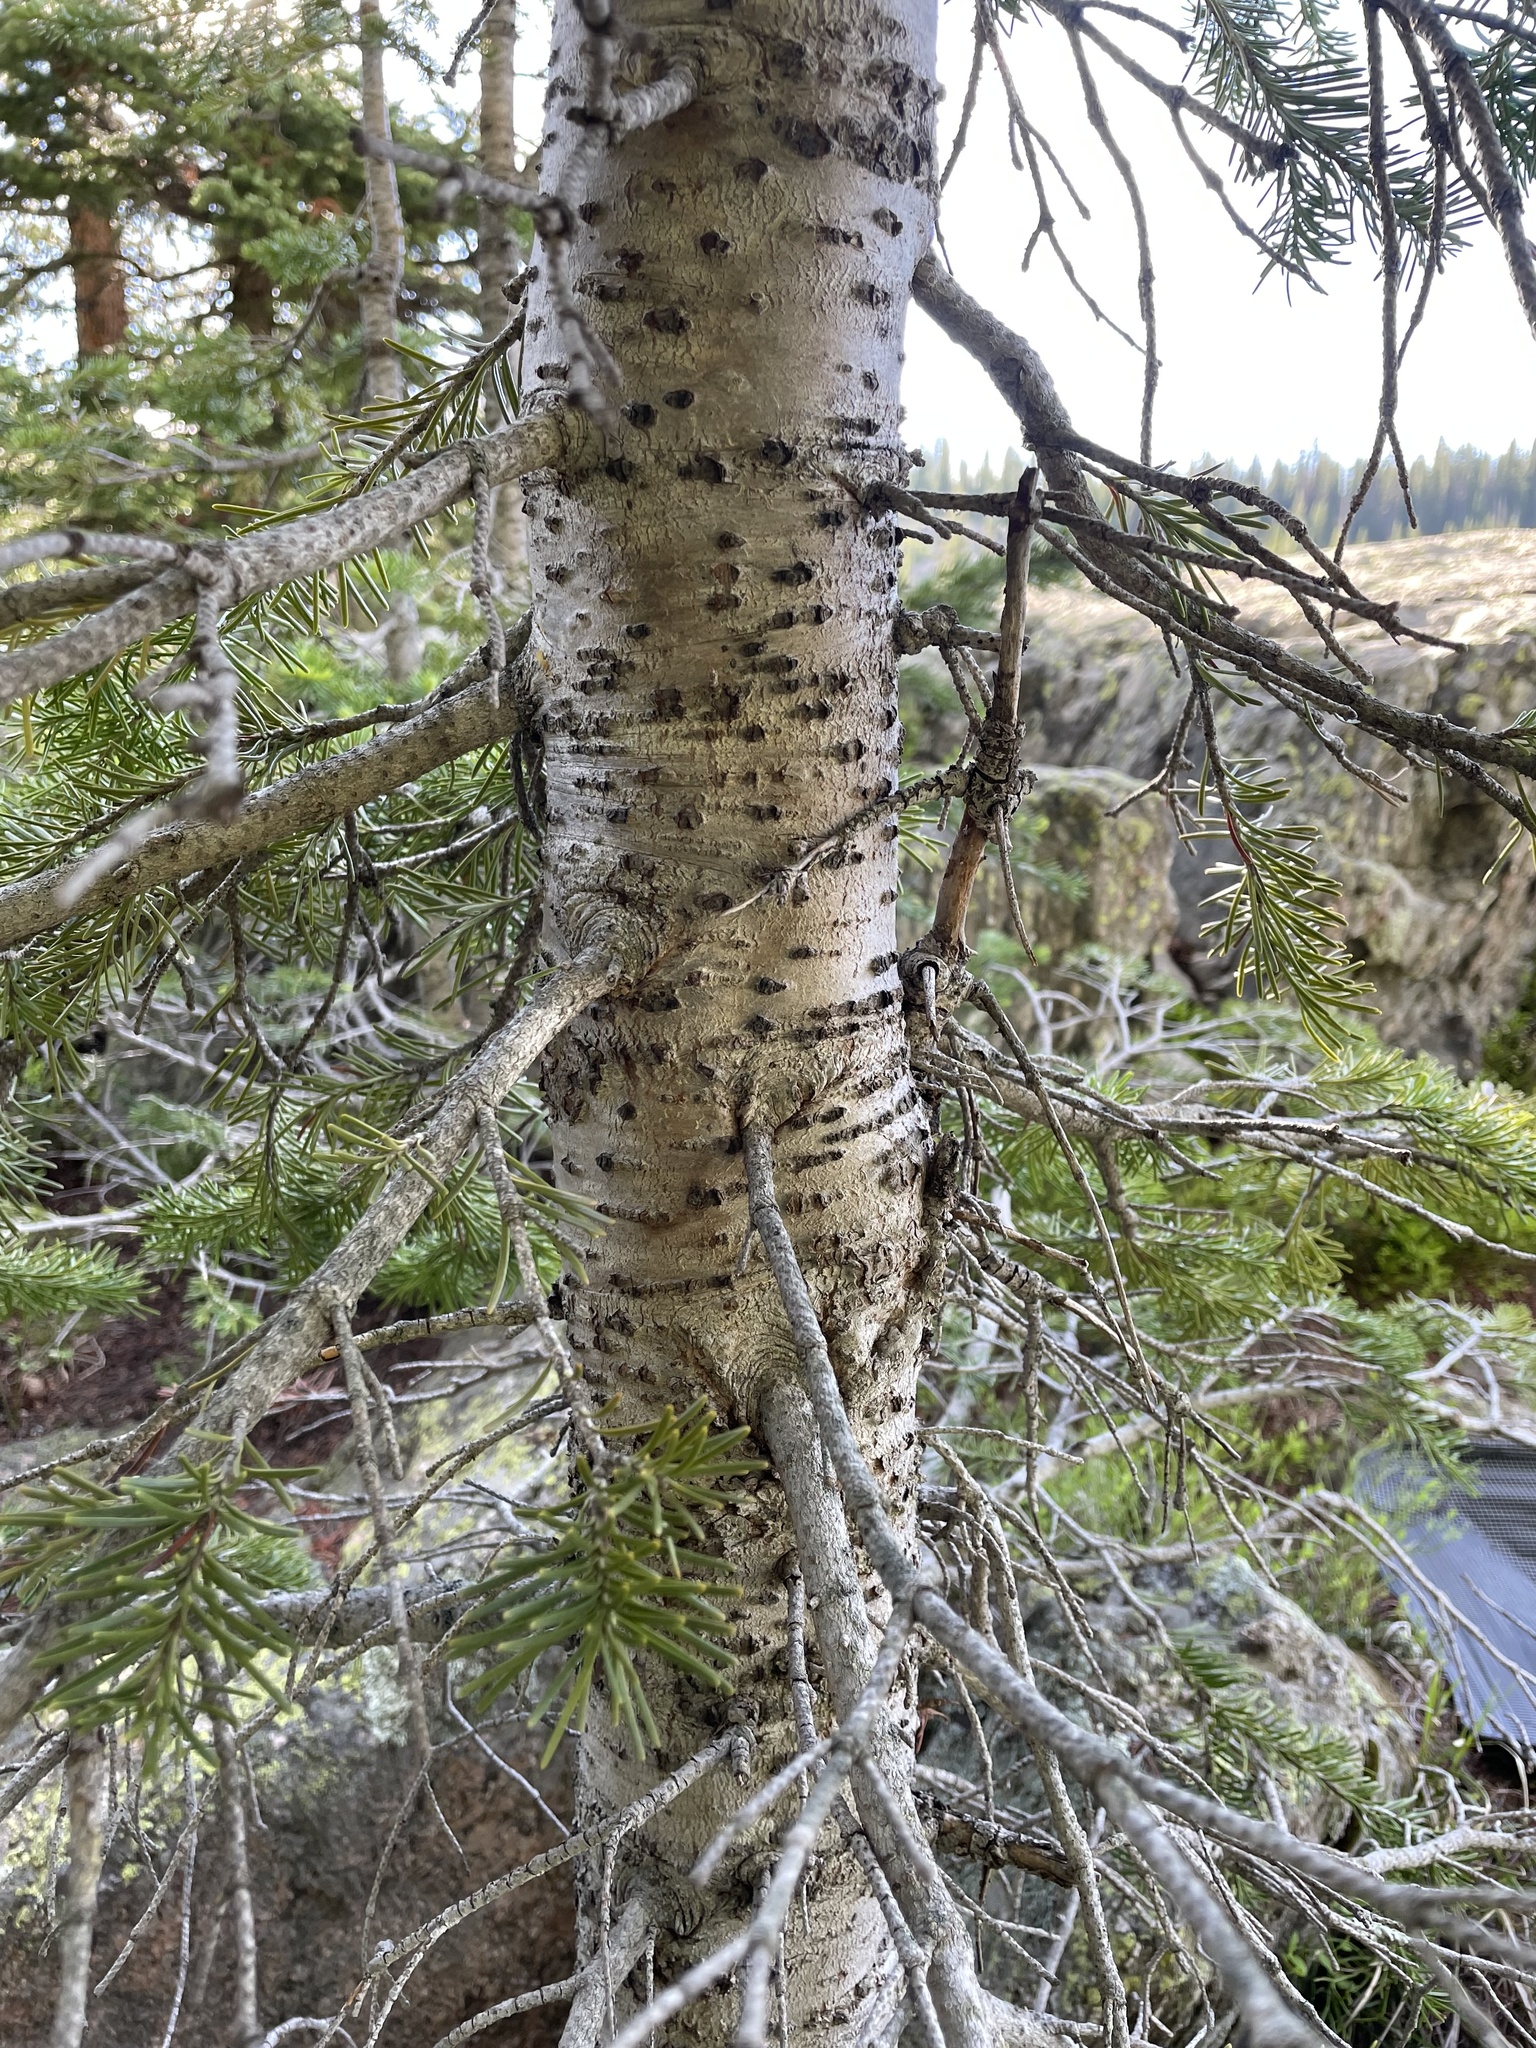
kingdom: Plantae
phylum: Tracheophyta
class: Pinopsida
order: Pinales
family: Pinaceae
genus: Abies
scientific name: Abies lasiocarpa
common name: Subalpine fir
